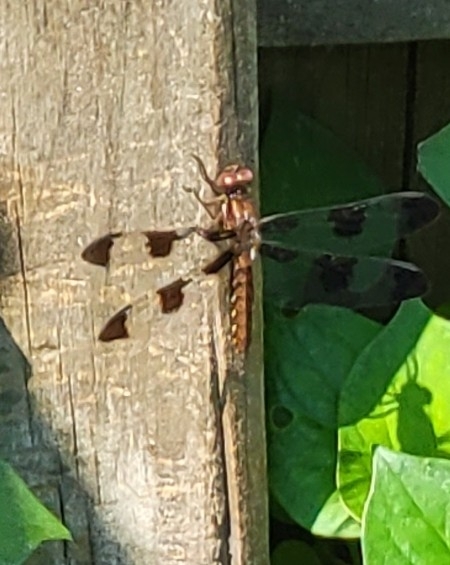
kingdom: Animalia
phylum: Arthropoda
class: Insecta
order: Odonata
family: Libellulidae
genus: Plathemis
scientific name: Plathemis lydia
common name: Common whitetail
